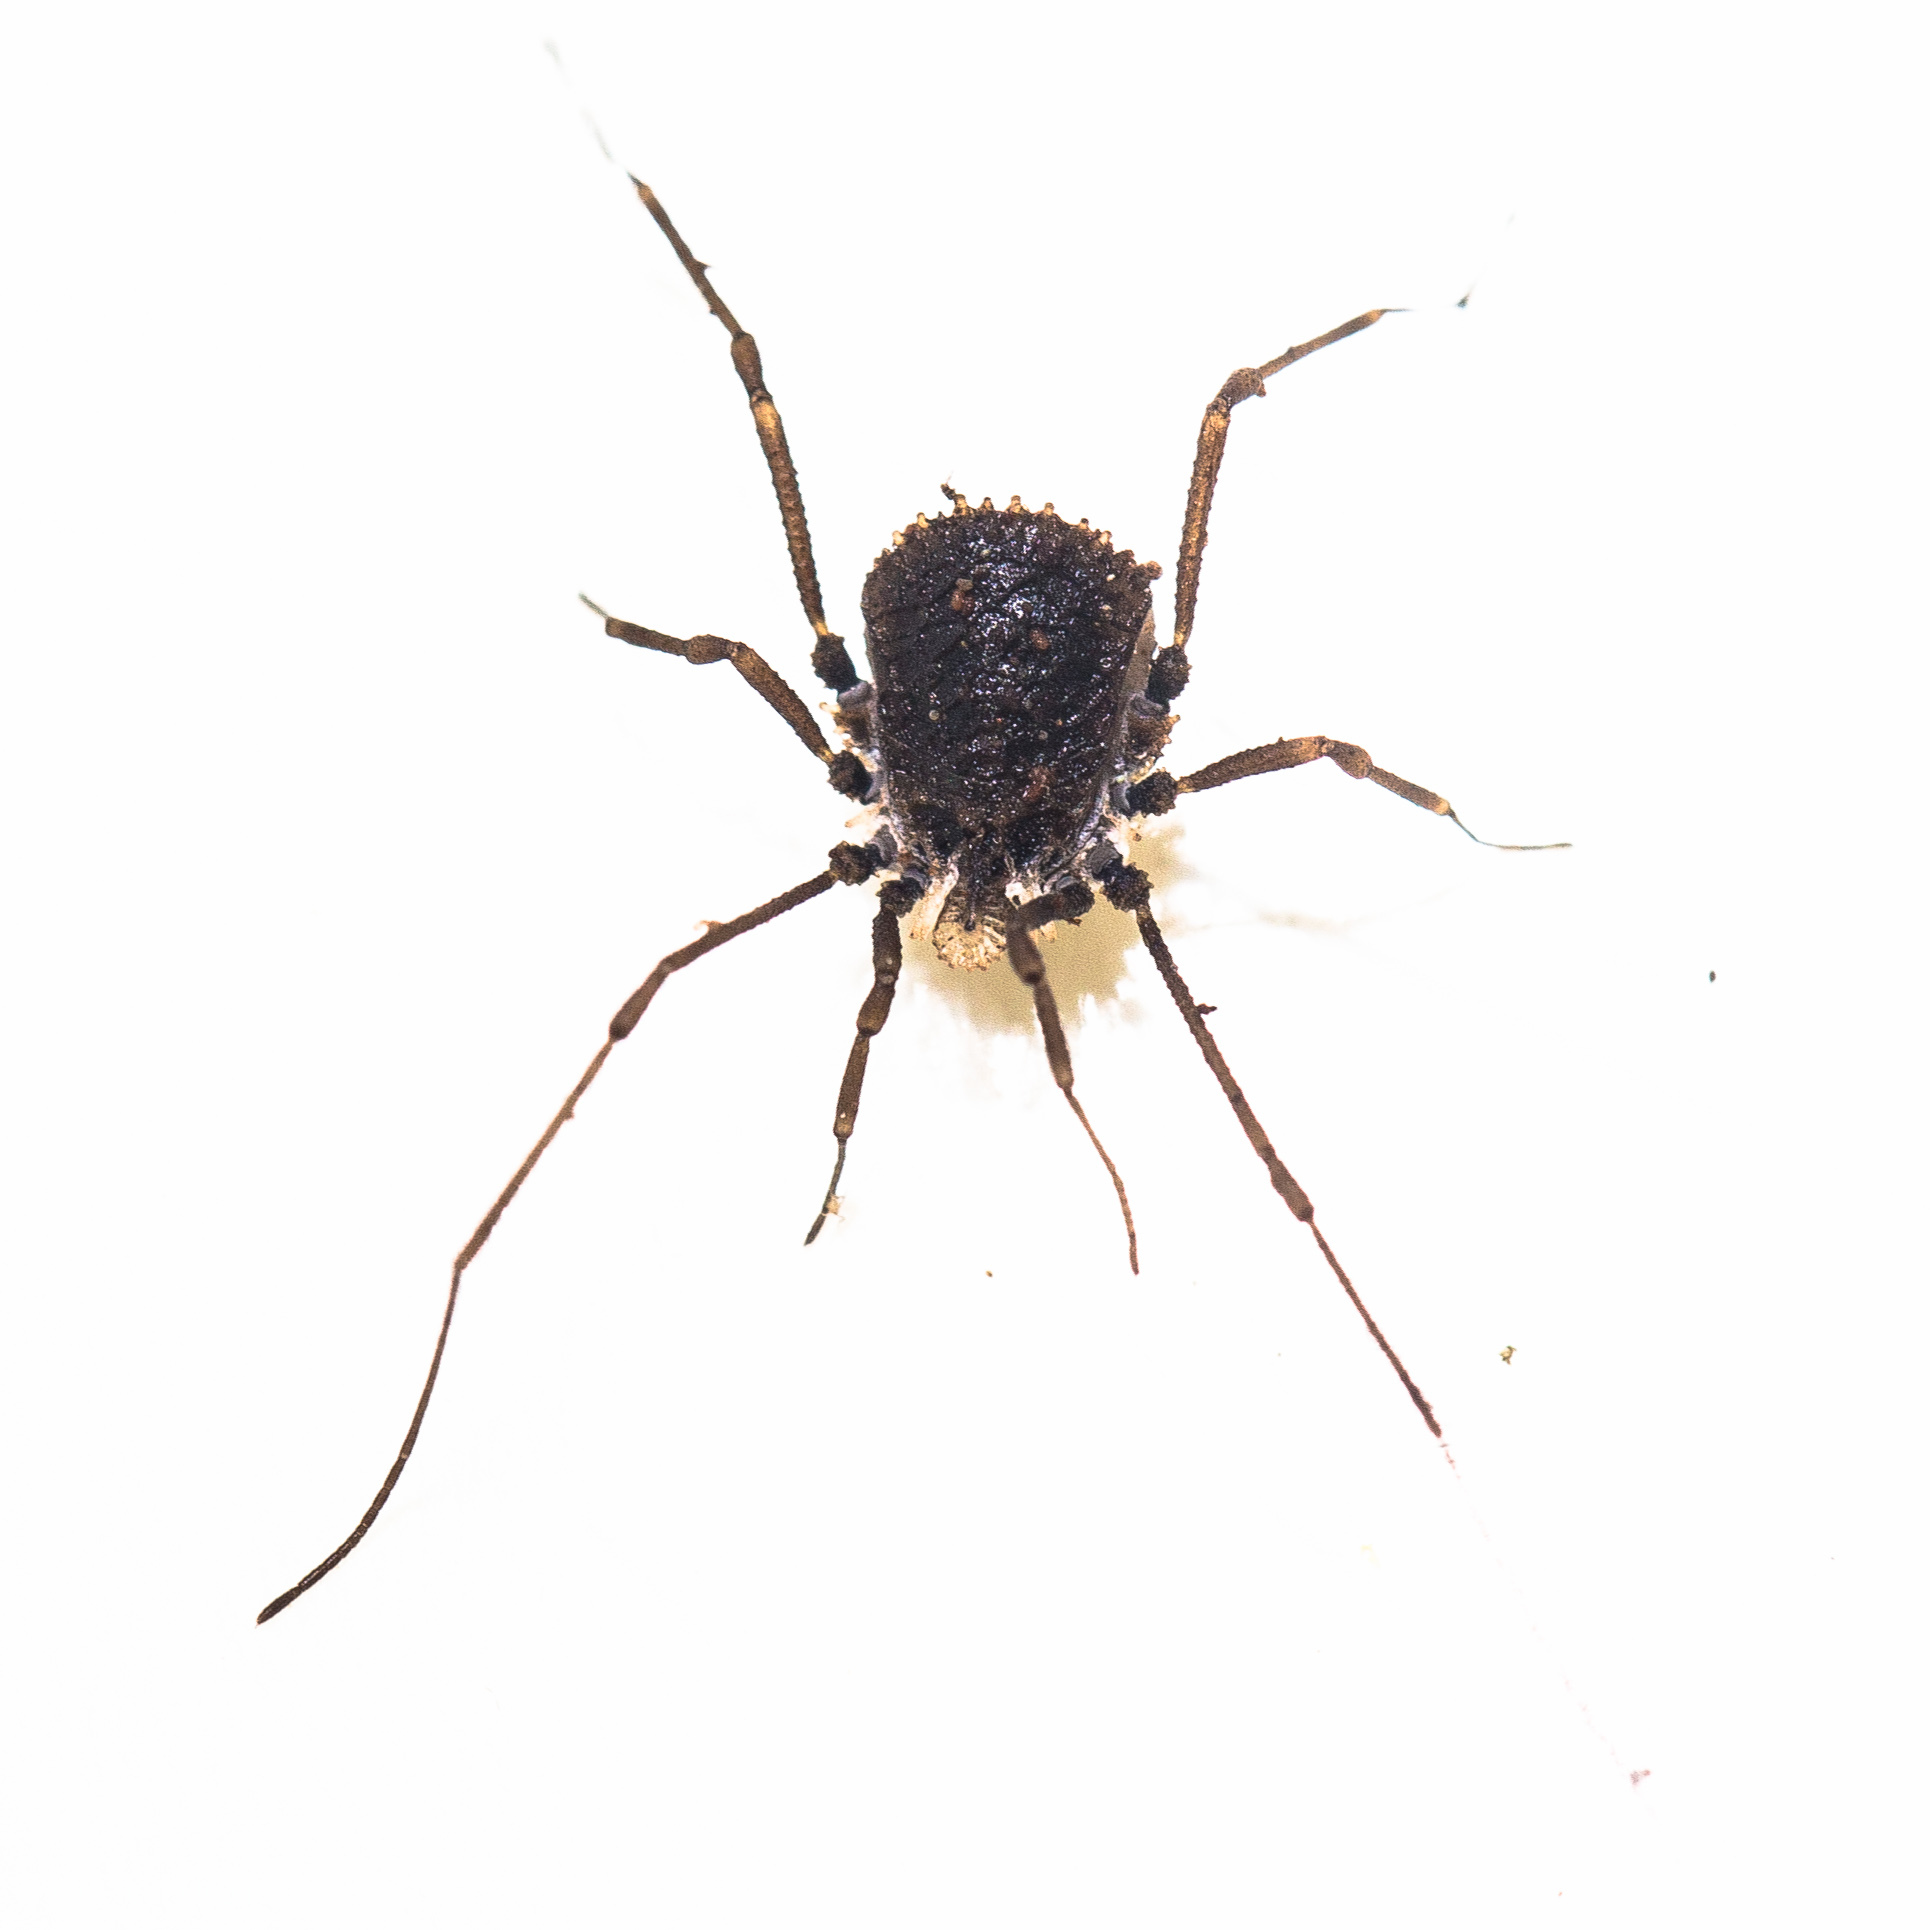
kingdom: Animalia
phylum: Arthropoda
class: Arachnida
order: Opiliones
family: Nemastomatidae
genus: Ortholasma
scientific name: Ortholasma rugosum
